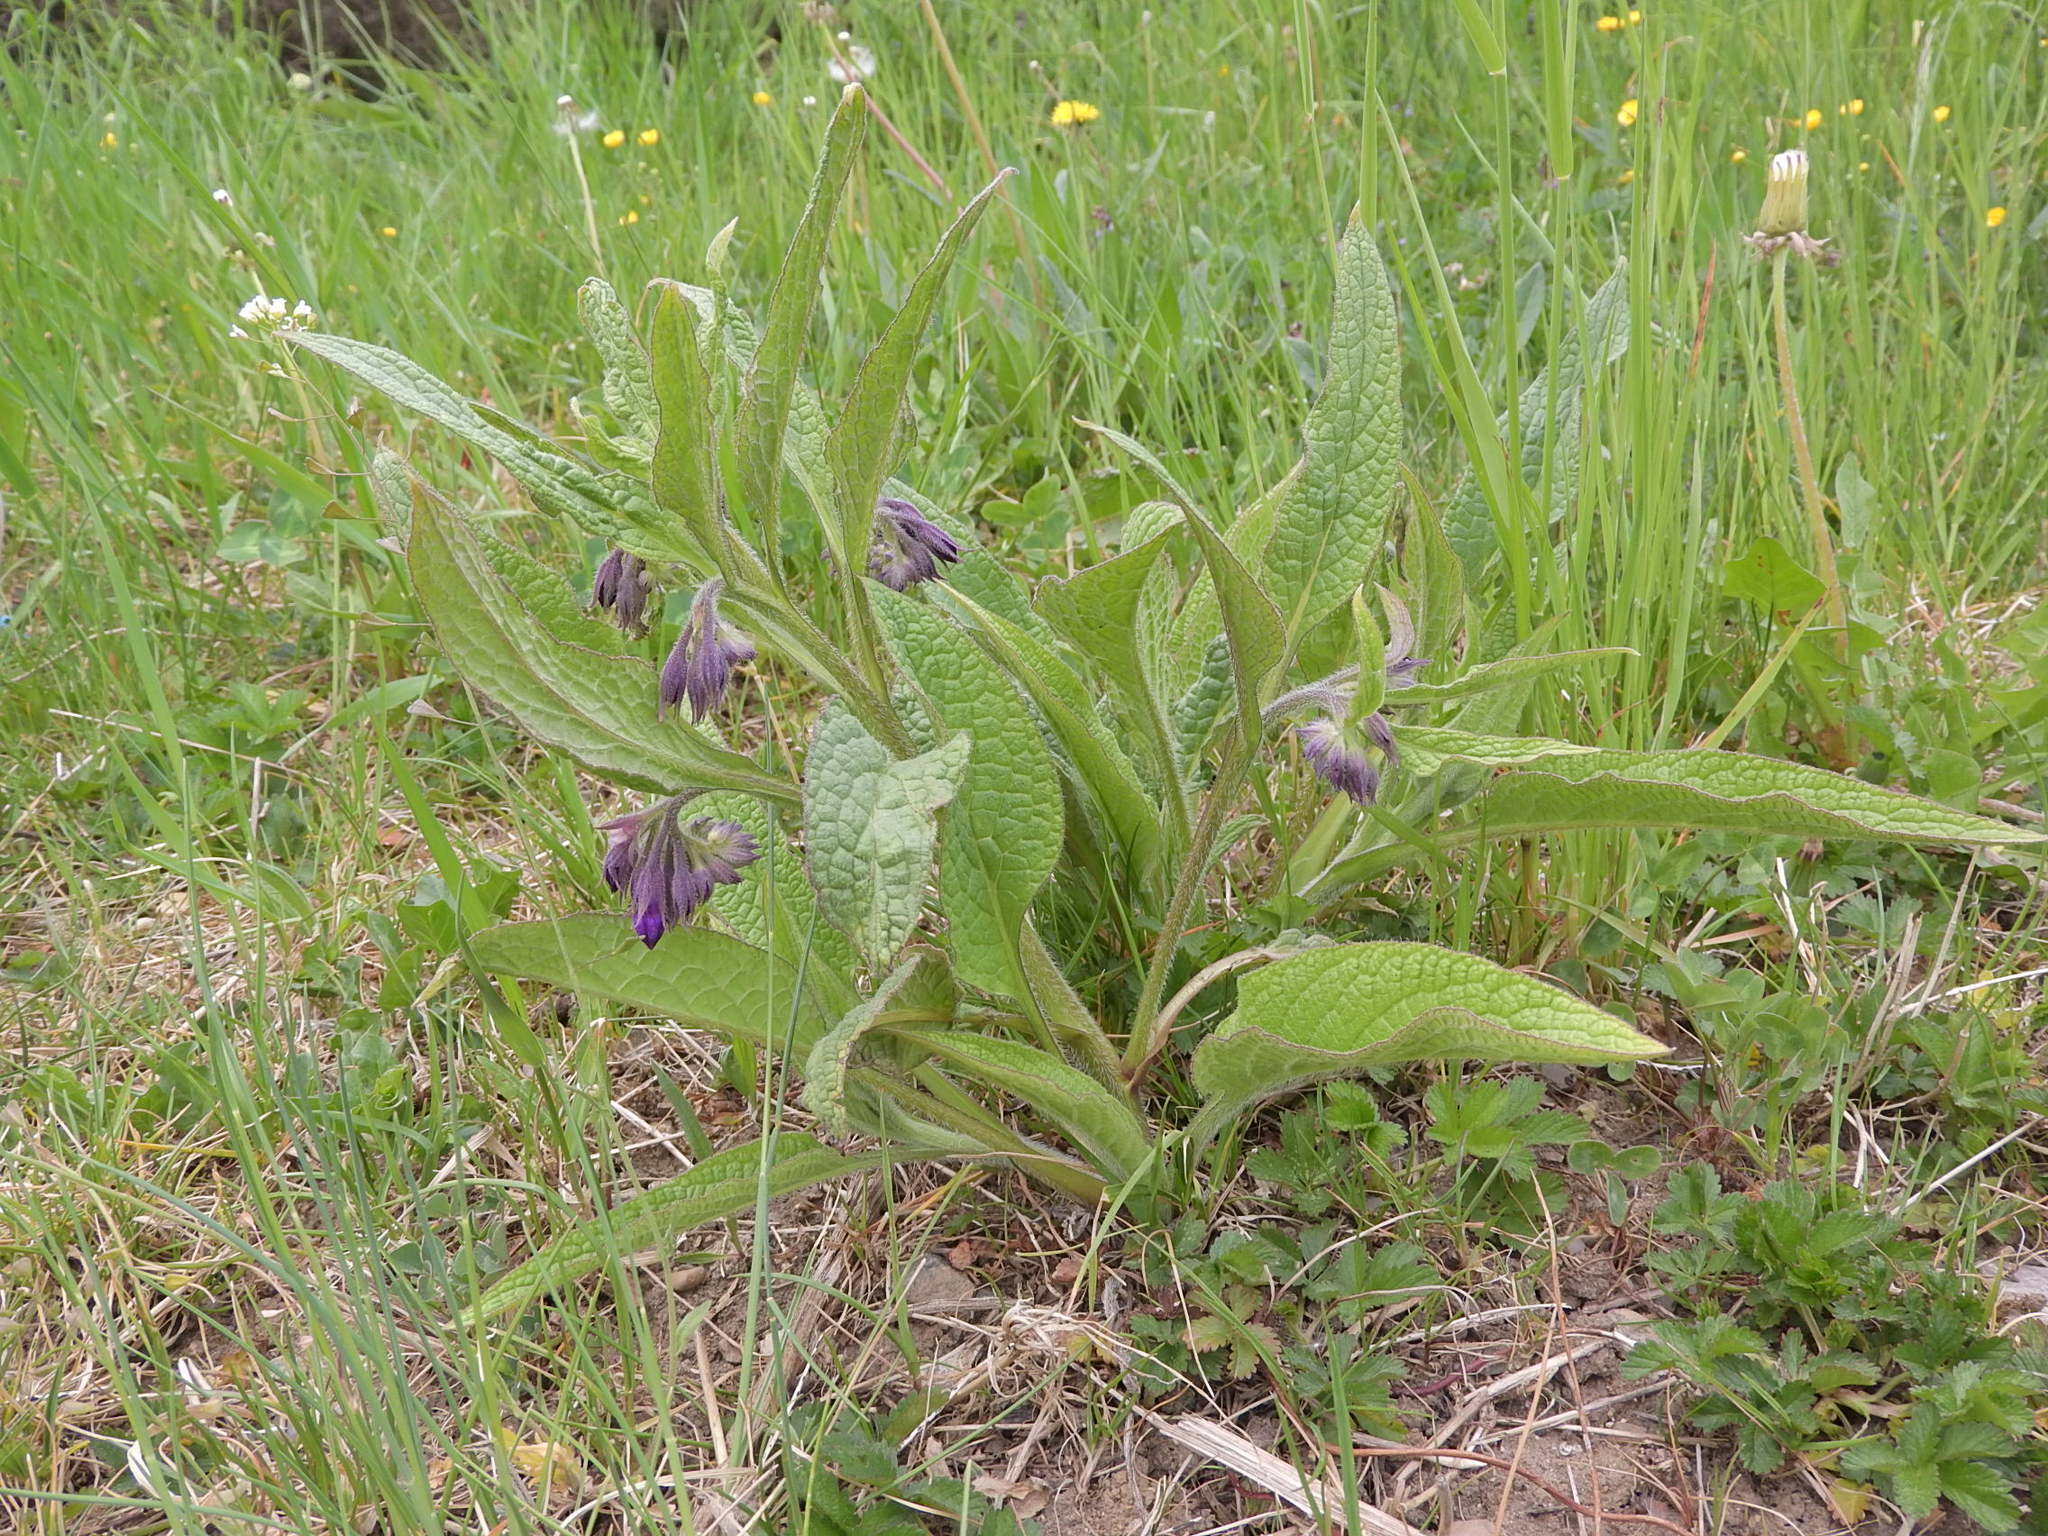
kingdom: Plantae
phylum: Tracheophyta
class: Magnoliopsida
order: Boraginales
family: Boraginaceae
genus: Symphytum
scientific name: Symphytum officinale
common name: Common comfrey
